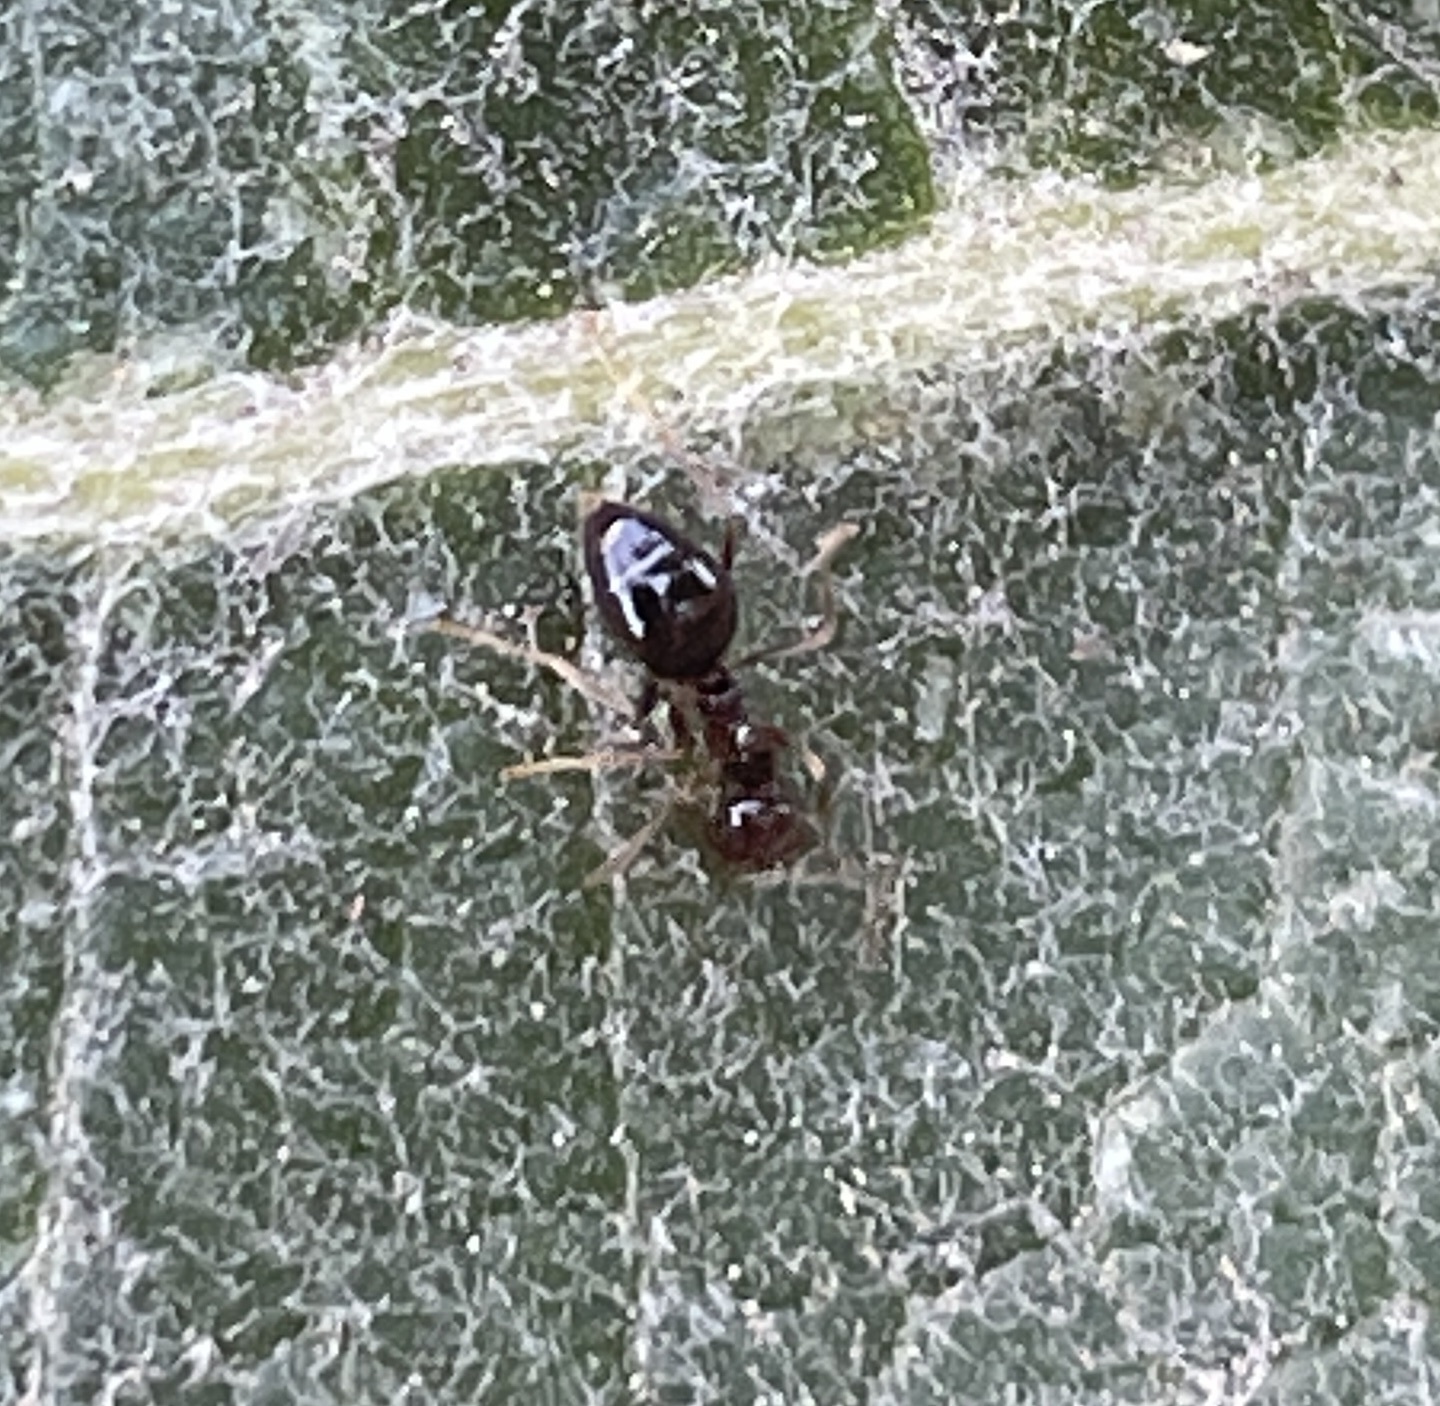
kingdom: Animalia
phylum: Arthropoda
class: Insecta
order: Hymenoptera
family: Formicidae
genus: Prenolepis
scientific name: Prenolepis imparis
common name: Small honey ant
